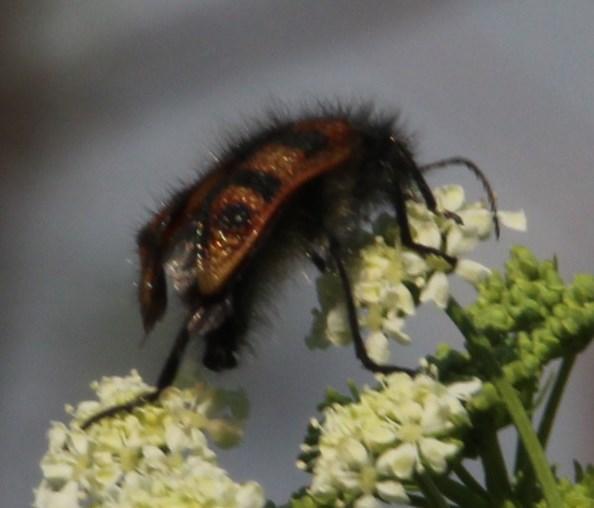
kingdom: Animalia
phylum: Arthropoda
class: Insecta
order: Coleoptera
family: Melyridae
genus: Astylus
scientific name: Astylus
